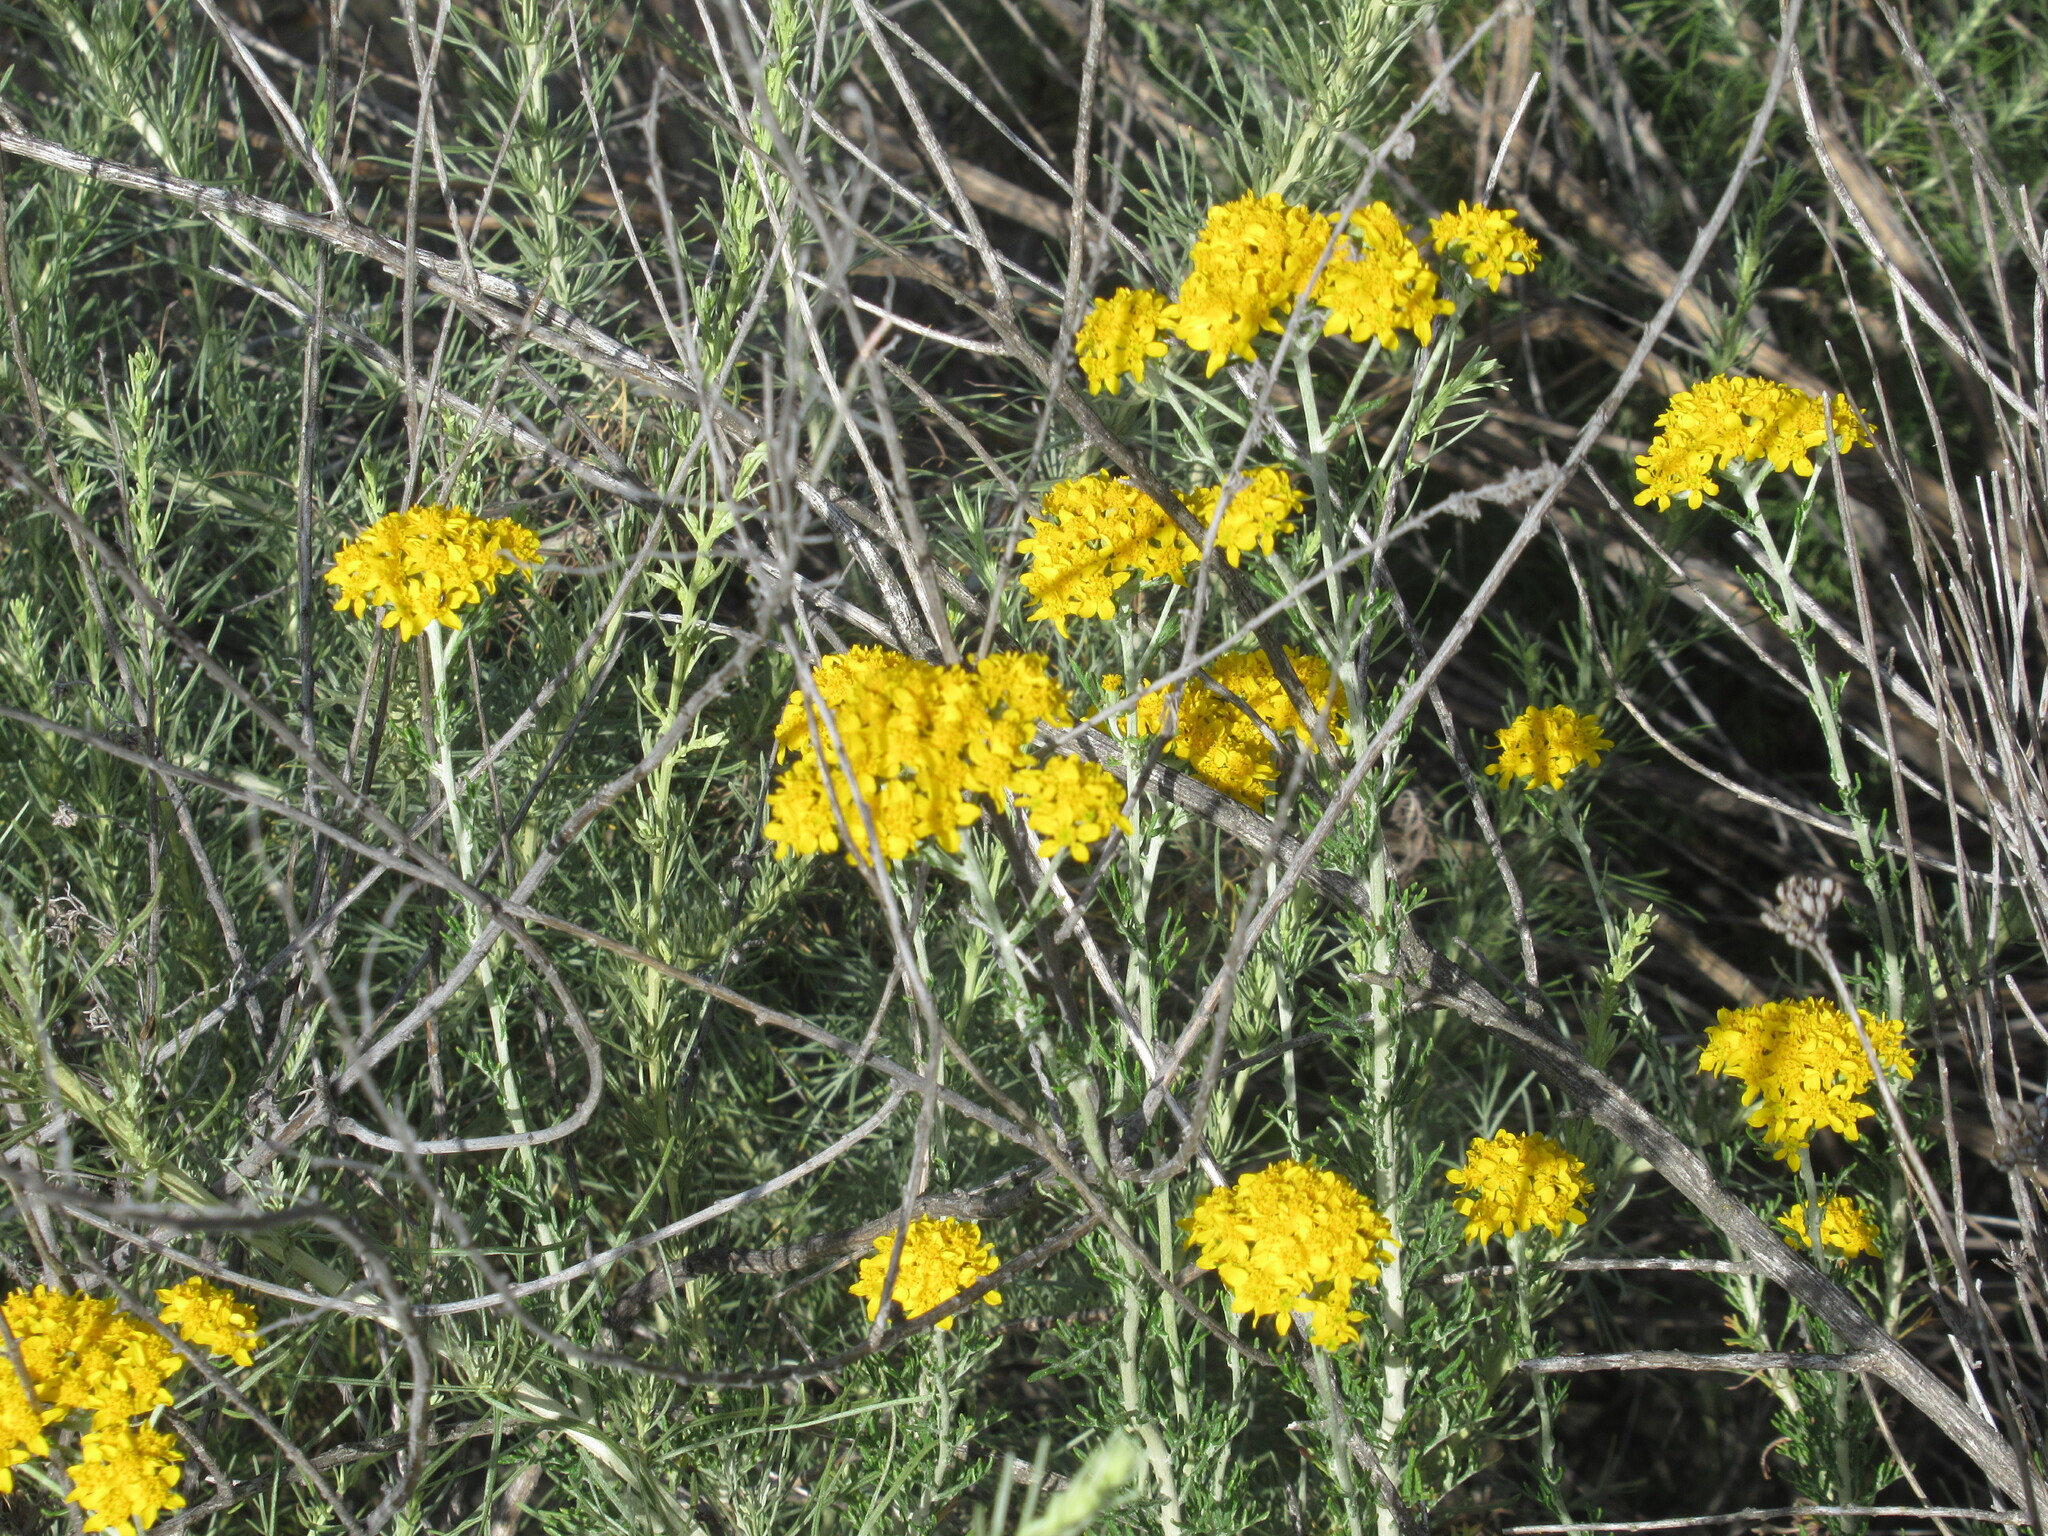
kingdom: Plantae
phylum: Tracheophyta
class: Magnoliopsida
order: Asterales
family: Asteraceae
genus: Eriophyllum
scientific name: Eriophyllum confertiflorum
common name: Golden-yarrow
